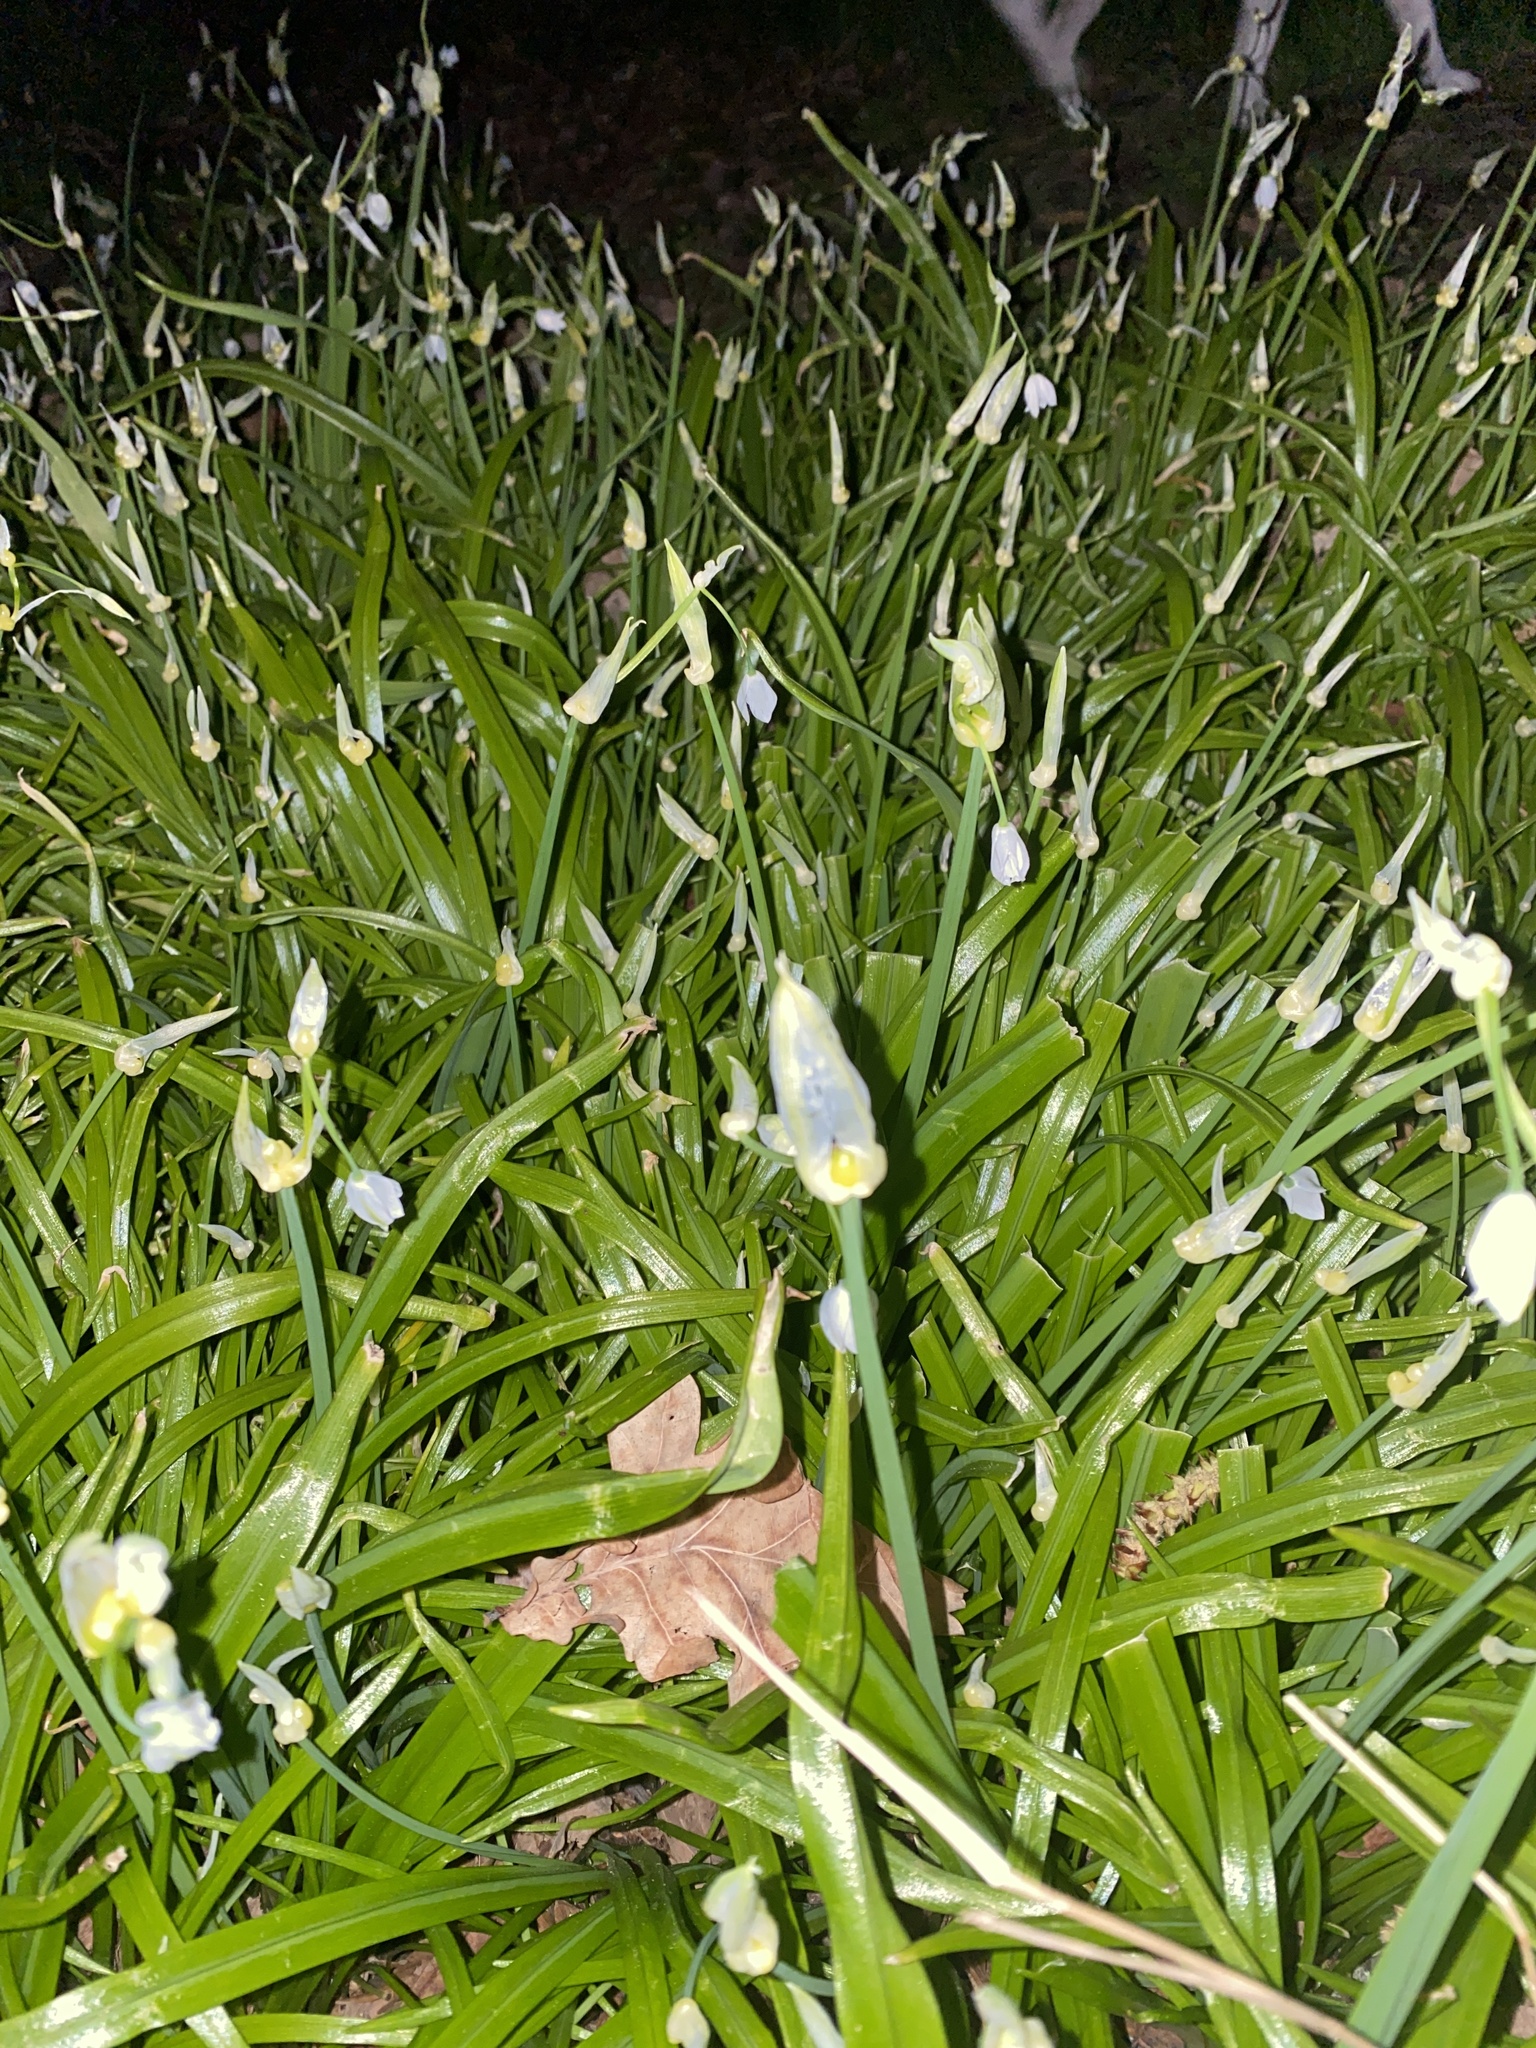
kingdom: Plantae
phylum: Tracheophyta
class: Liliopsida
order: Asparagales
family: Amaryllidaceae
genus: Allium
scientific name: Allium paradoxum
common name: Few-flowered garlic
